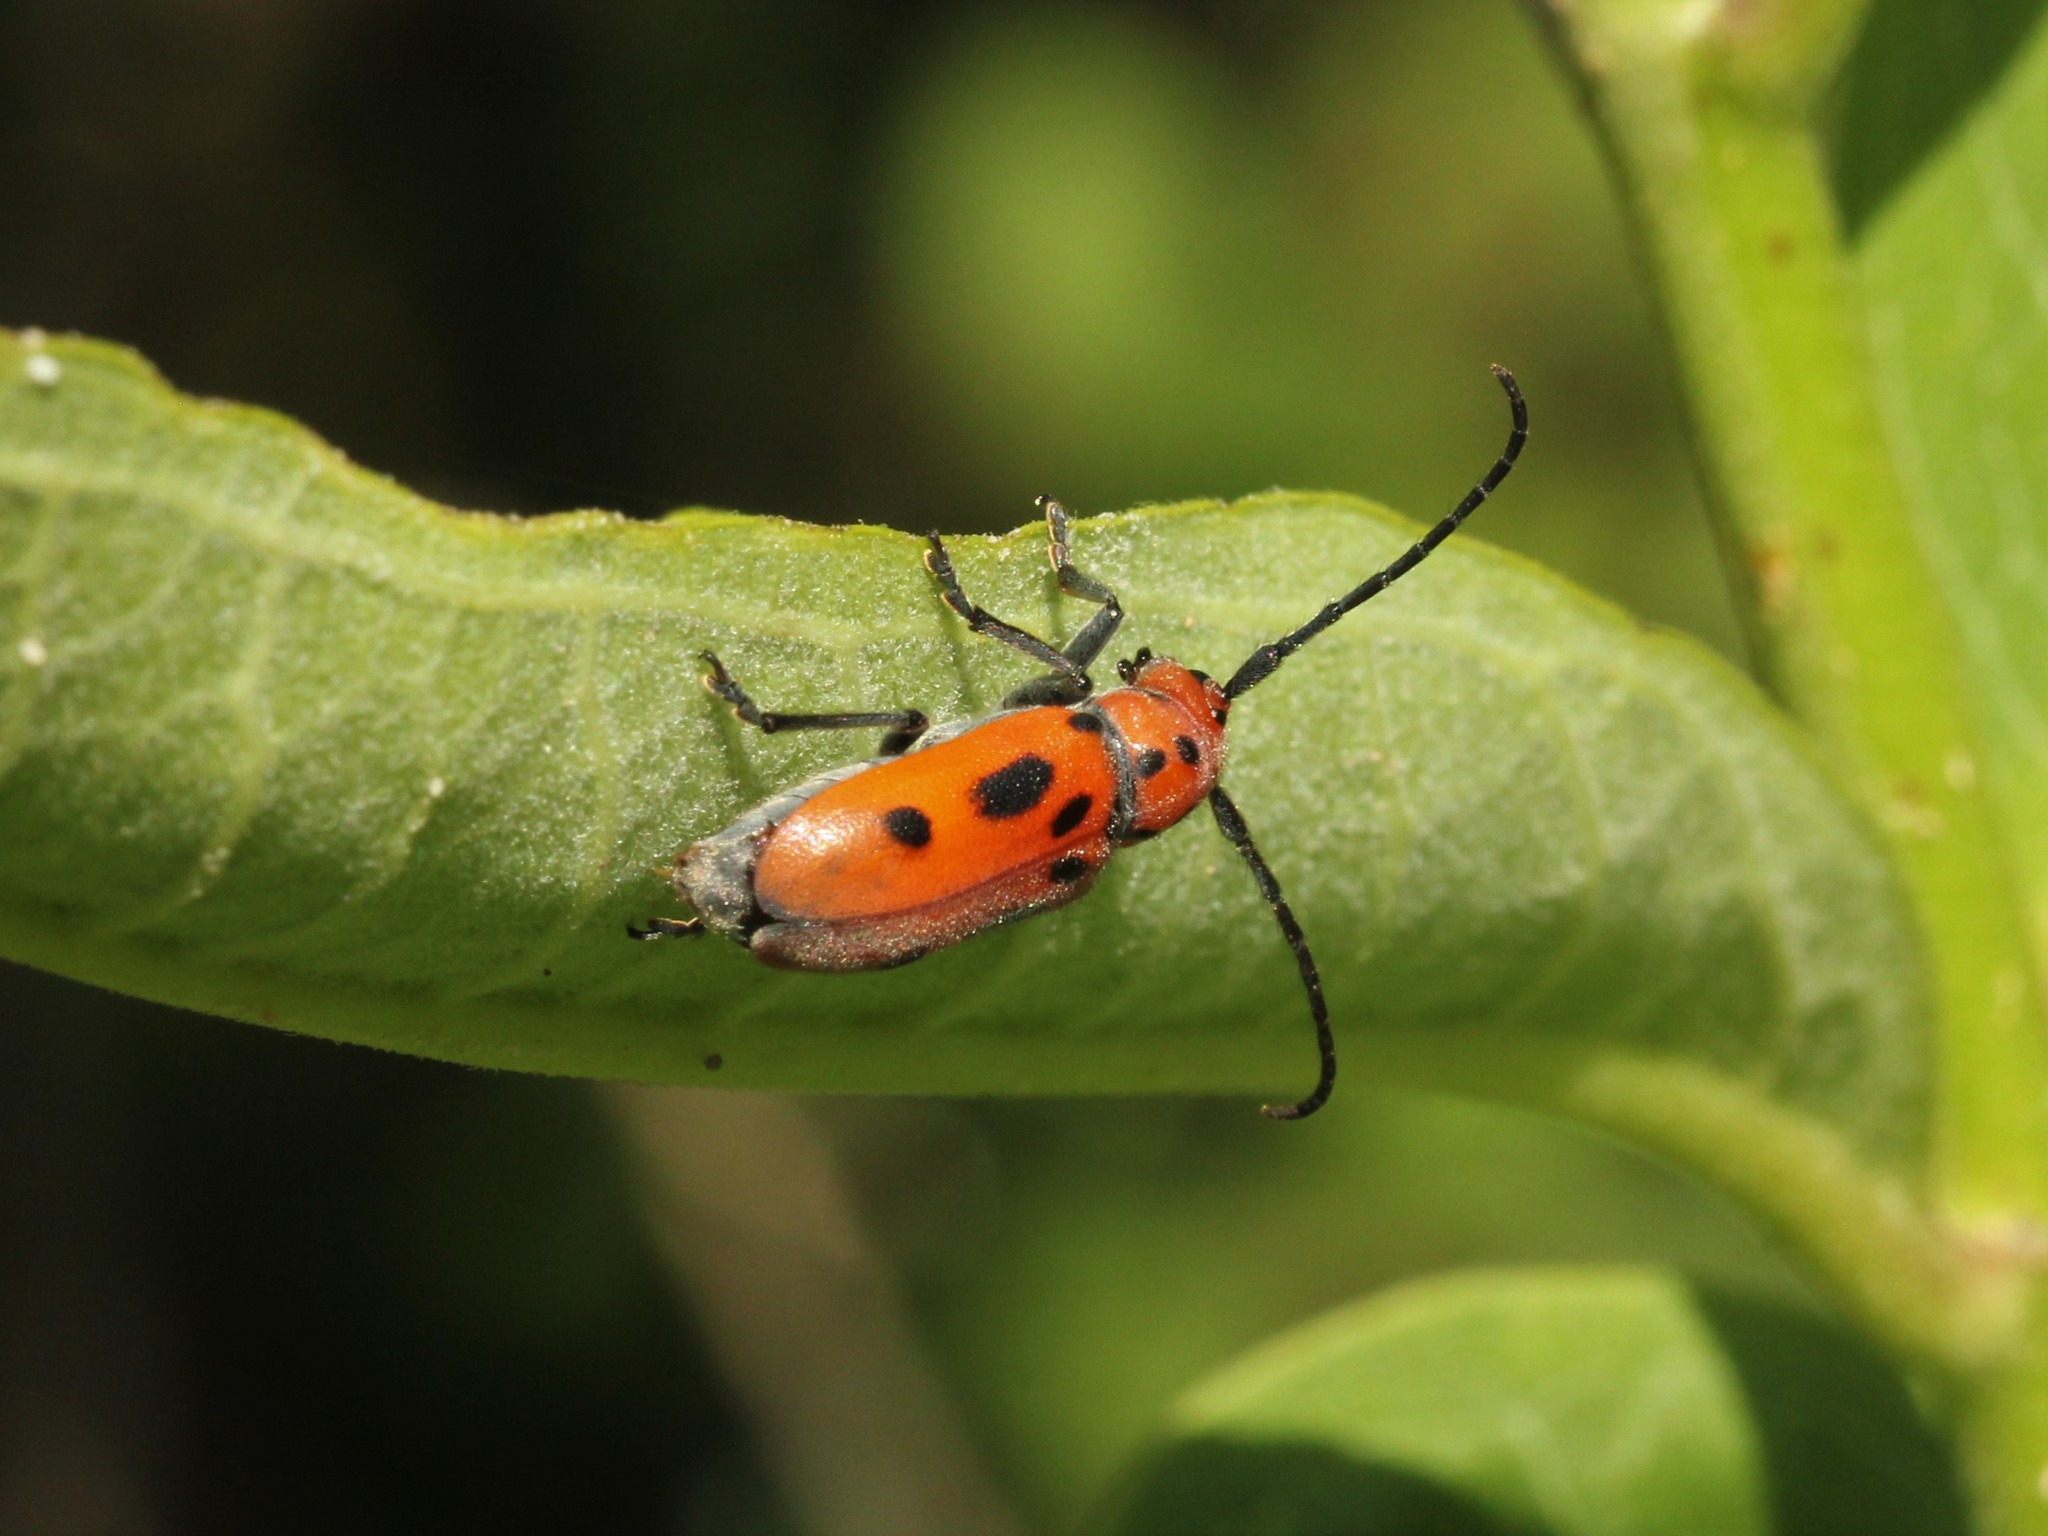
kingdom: Animalia
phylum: Arthropoda
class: Insecta
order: Coleoptera
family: Cerambycidae
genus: Tetraopes
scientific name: Tetraopes tetrophthalmus
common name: Red milkweed beetle
